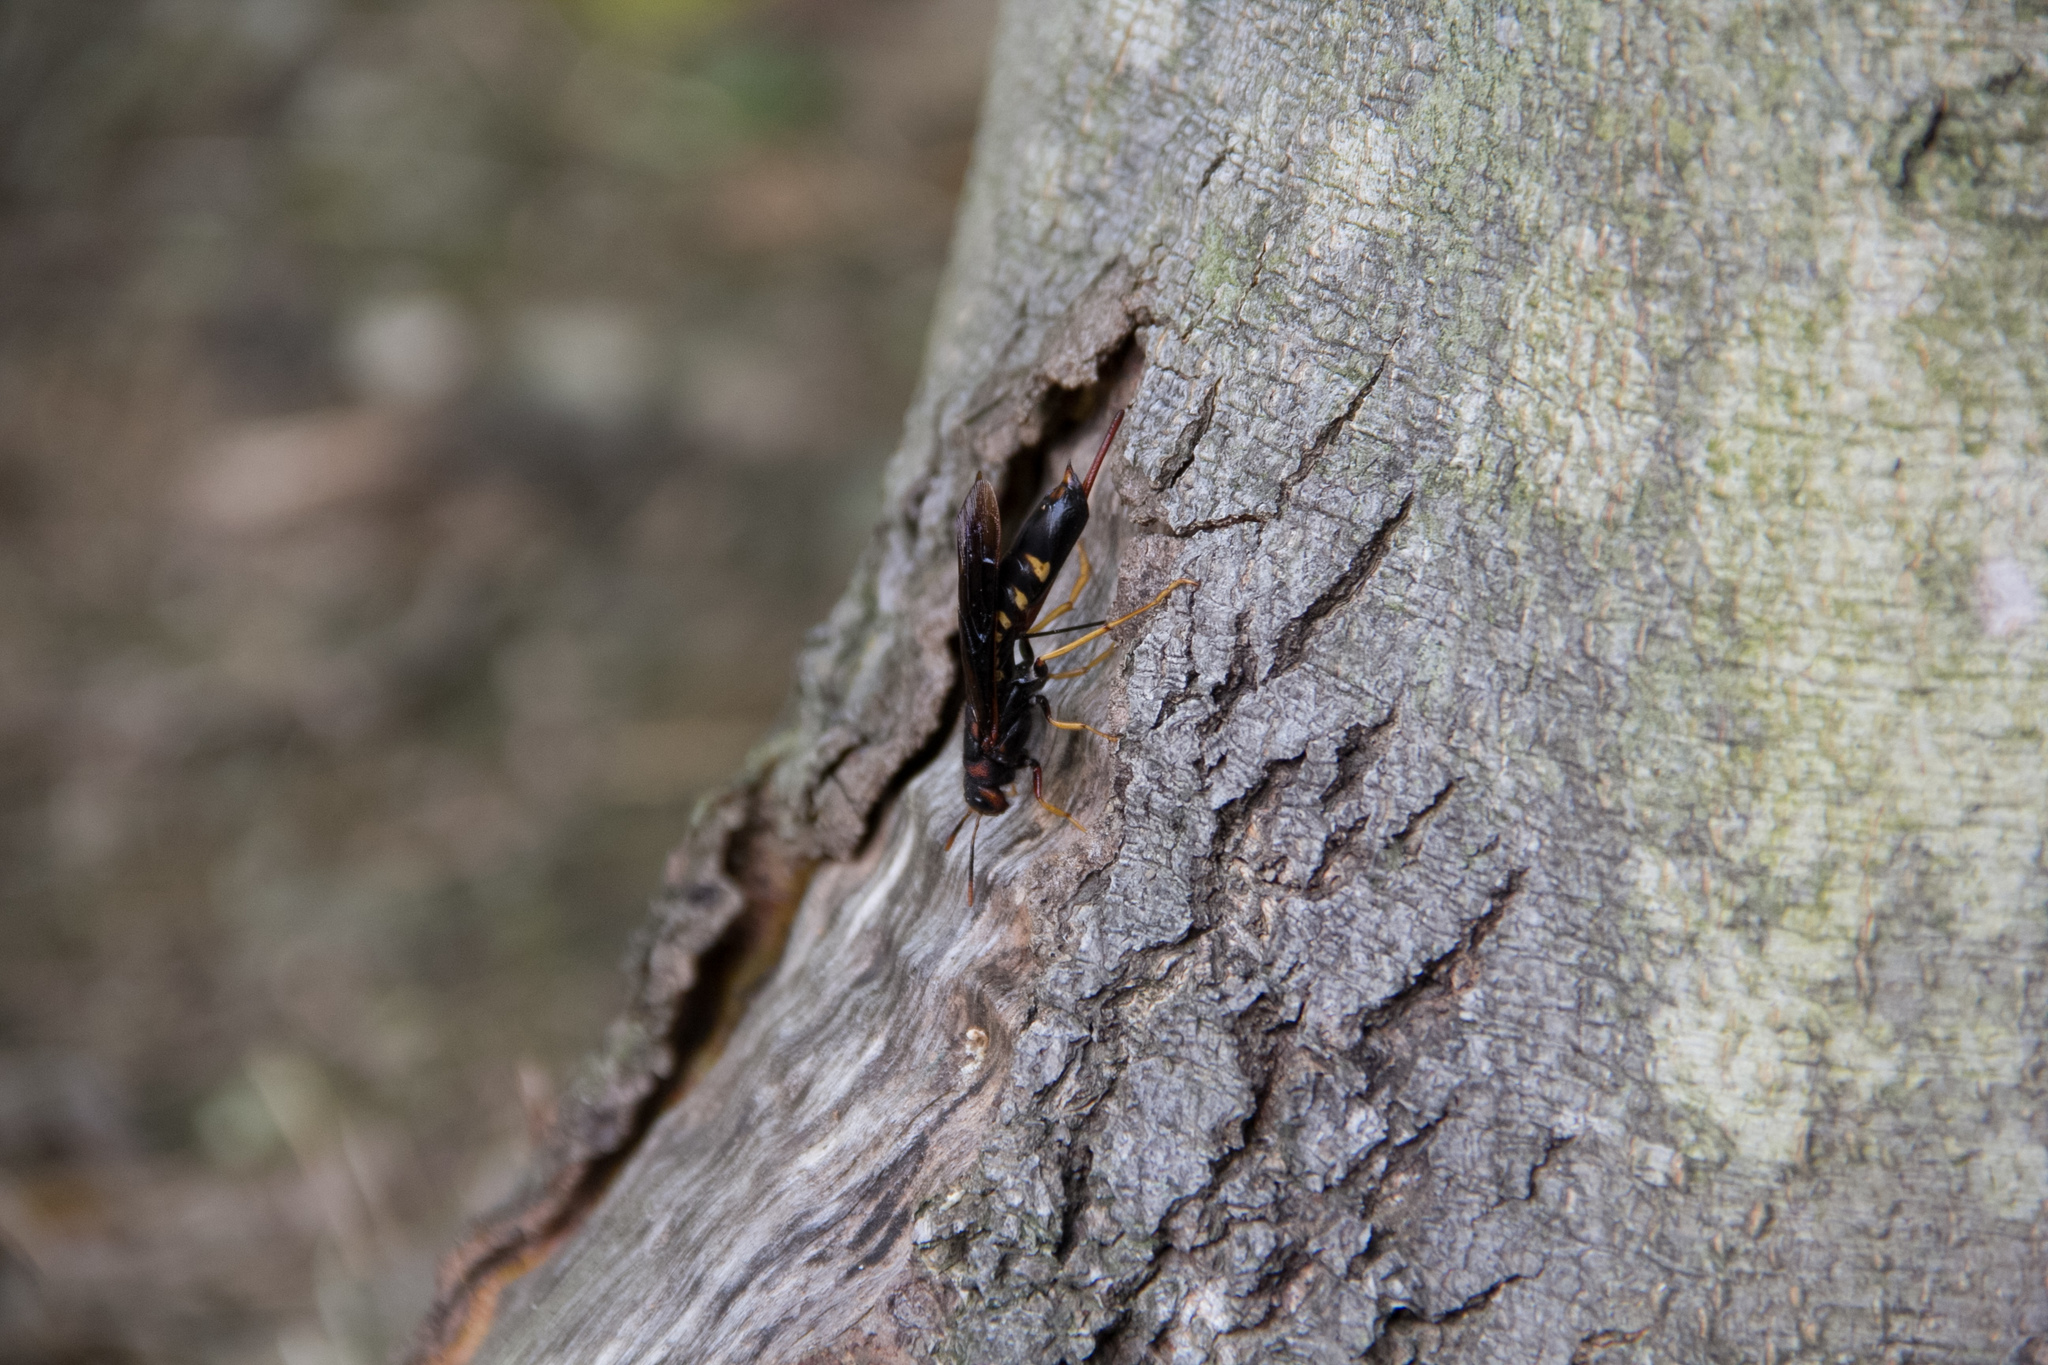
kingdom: Animalia
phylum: Arthropoda
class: Insecta
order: Hymenoptera
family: Siricidae
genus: Tremex
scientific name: Tremex columba
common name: Wasp
